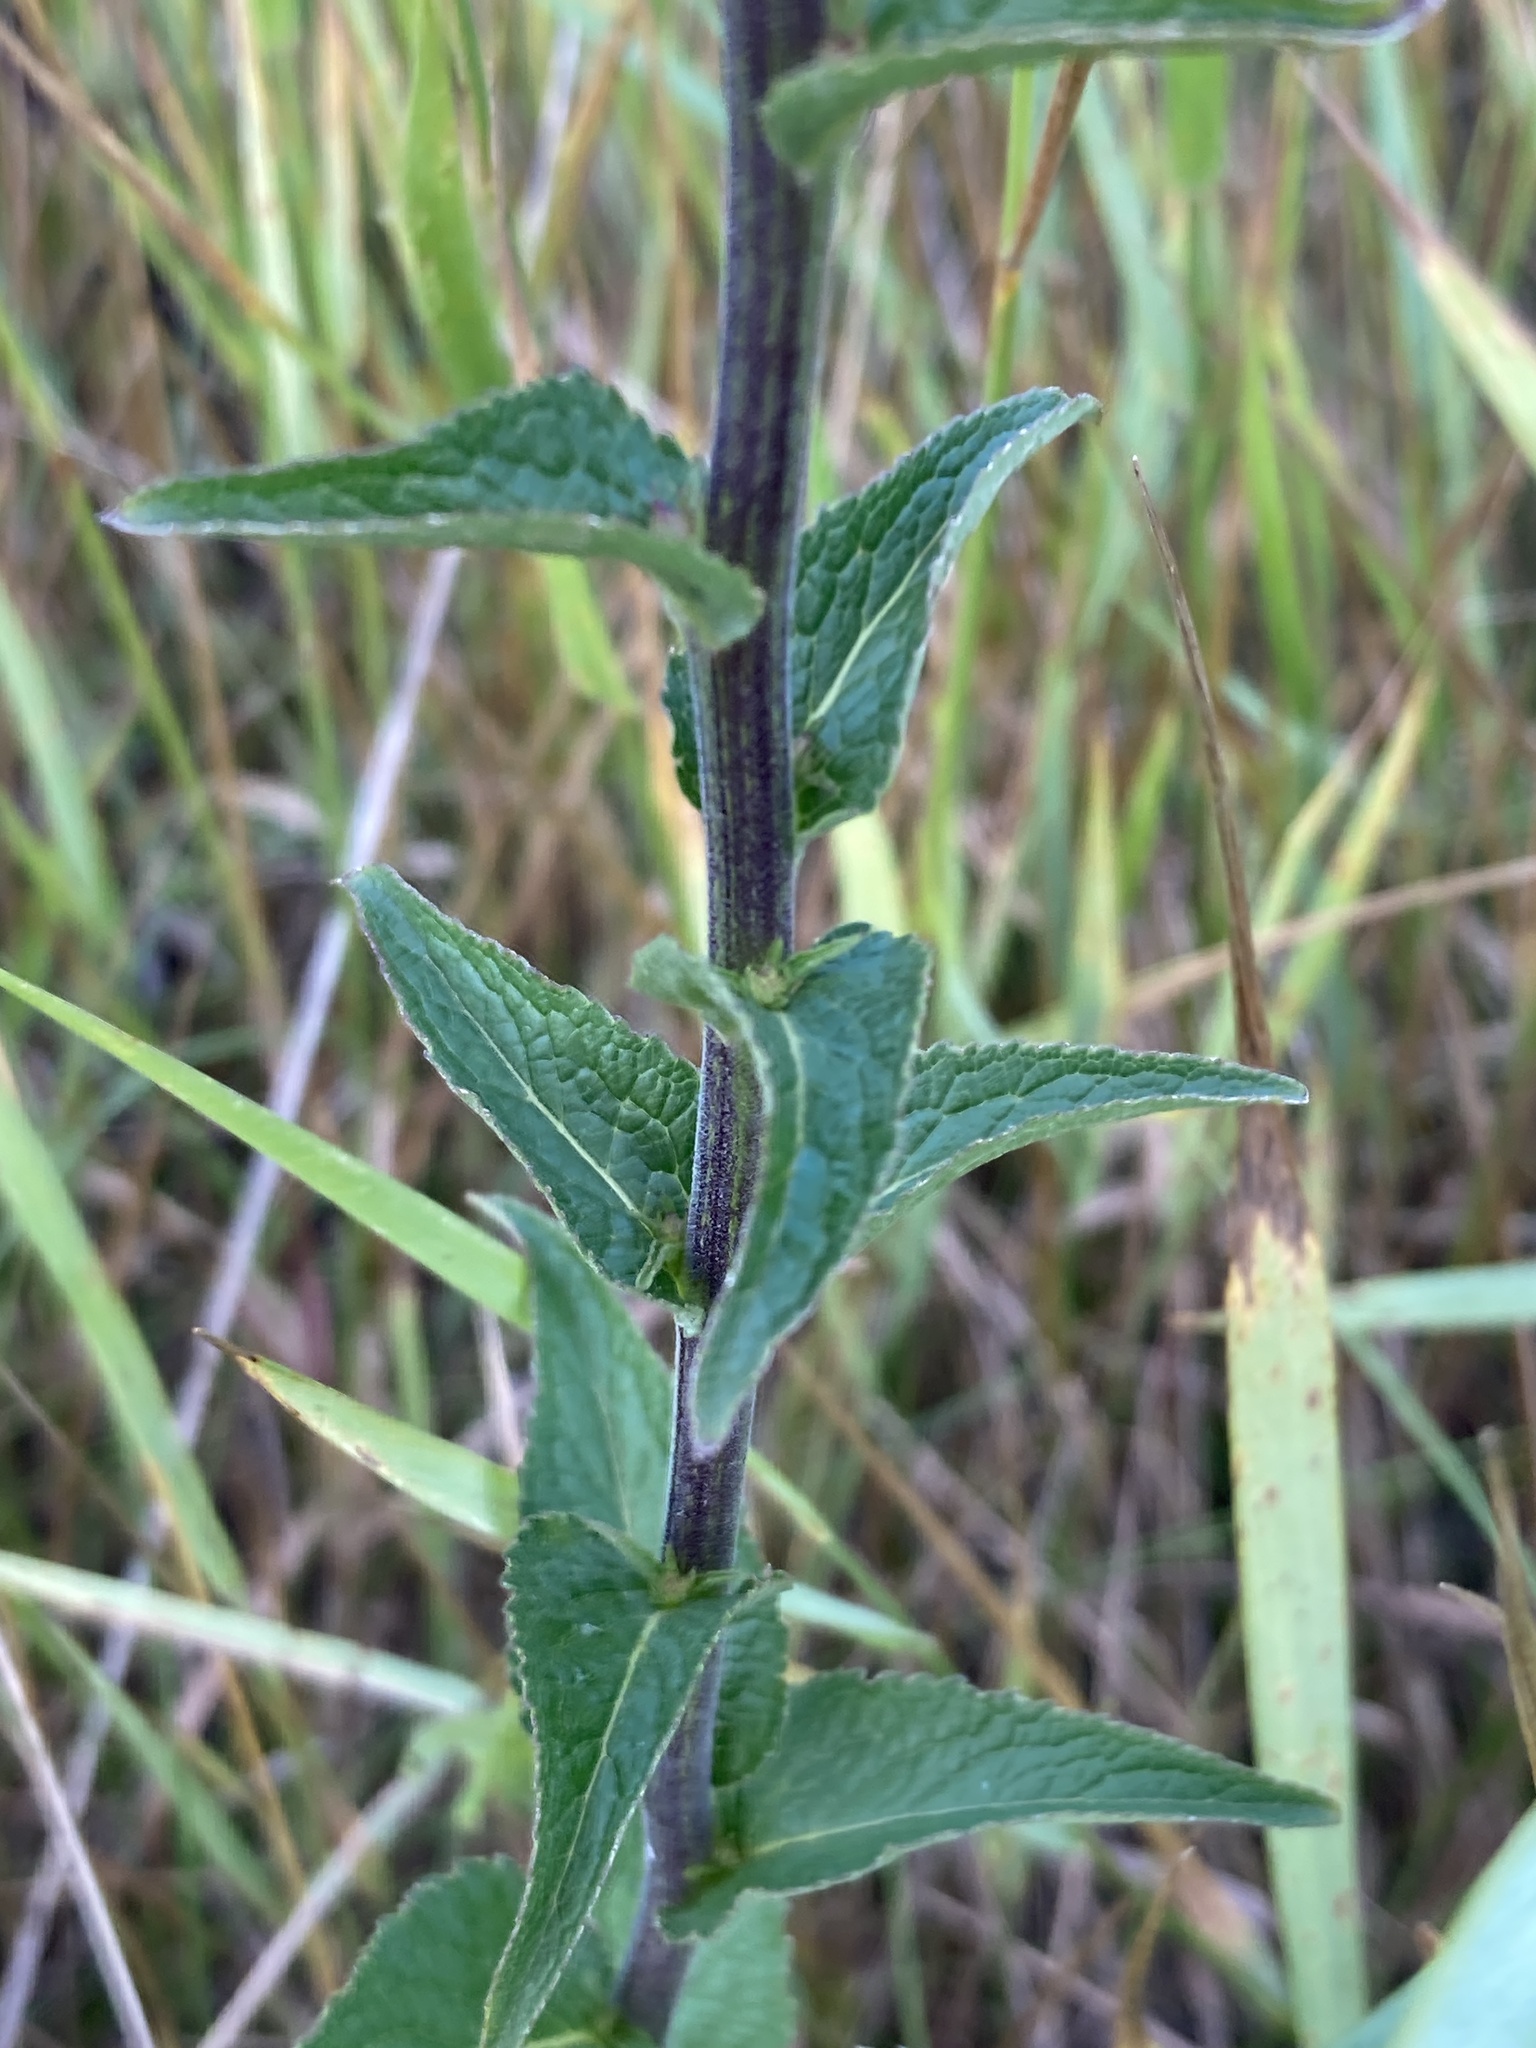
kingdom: Plantae
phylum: Tracheophyta
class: Magnoliopsida
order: Asterales
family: Campanulaceae
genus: Campanula
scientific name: Campanula bononiensis
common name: Pale bellflower
